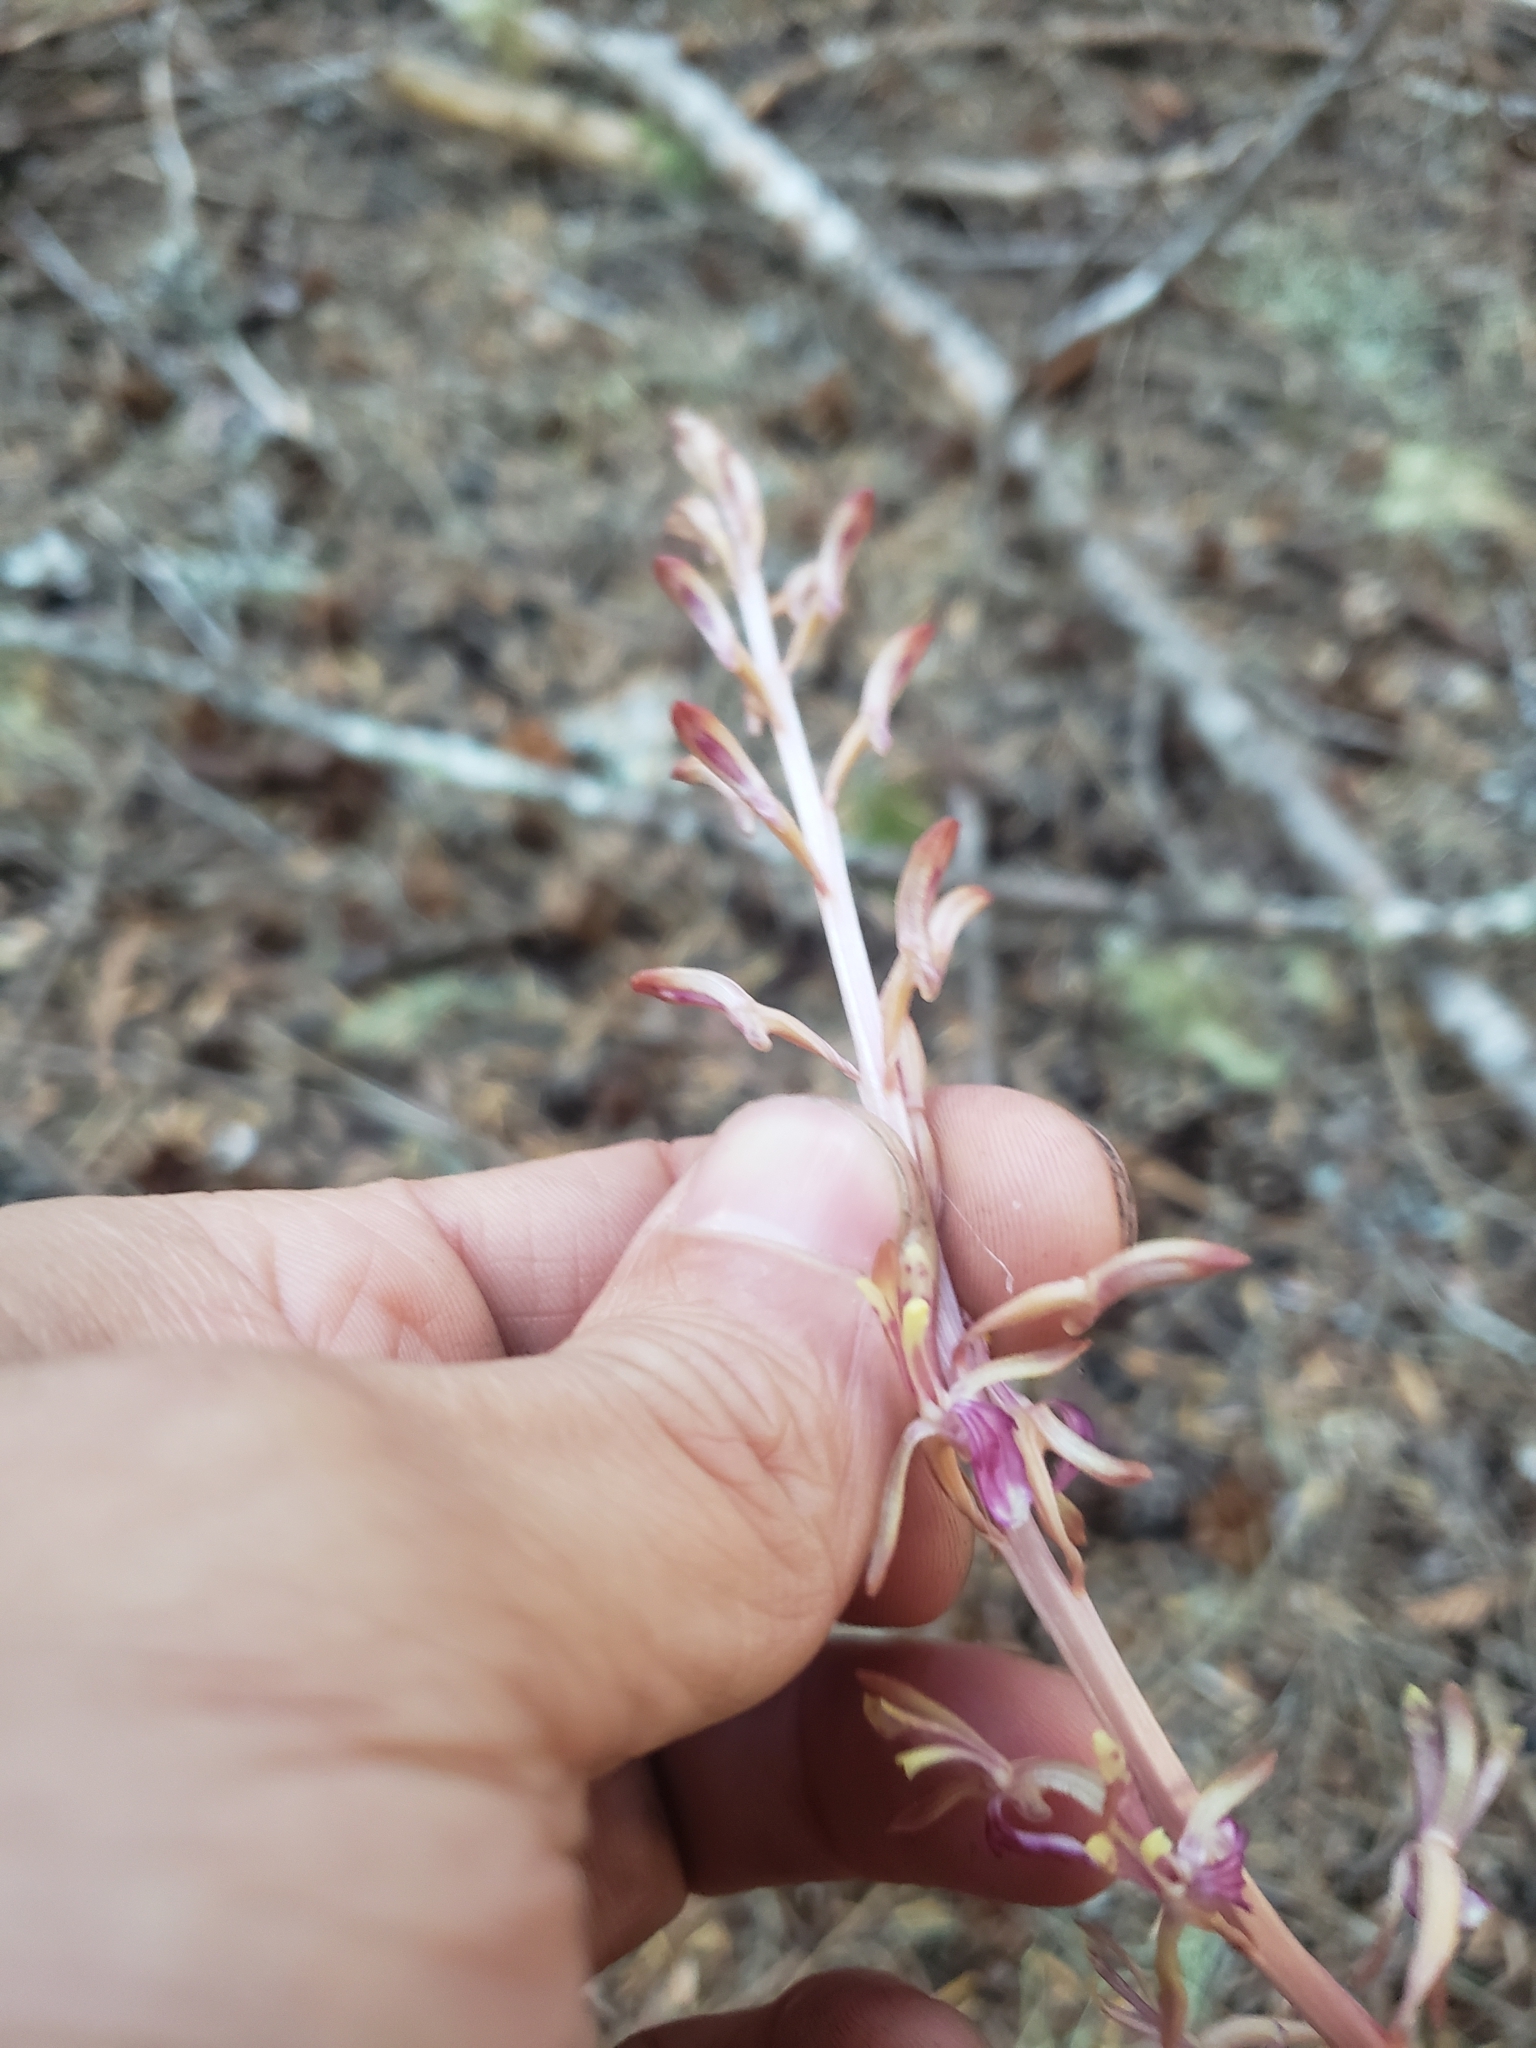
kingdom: Plantae
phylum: Tracheophyta
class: Liliopsida
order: Asparagales
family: Orchidaceae
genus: Corallorhiza
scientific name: Corallorhiza mertensiana
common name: Pacific coralroot
